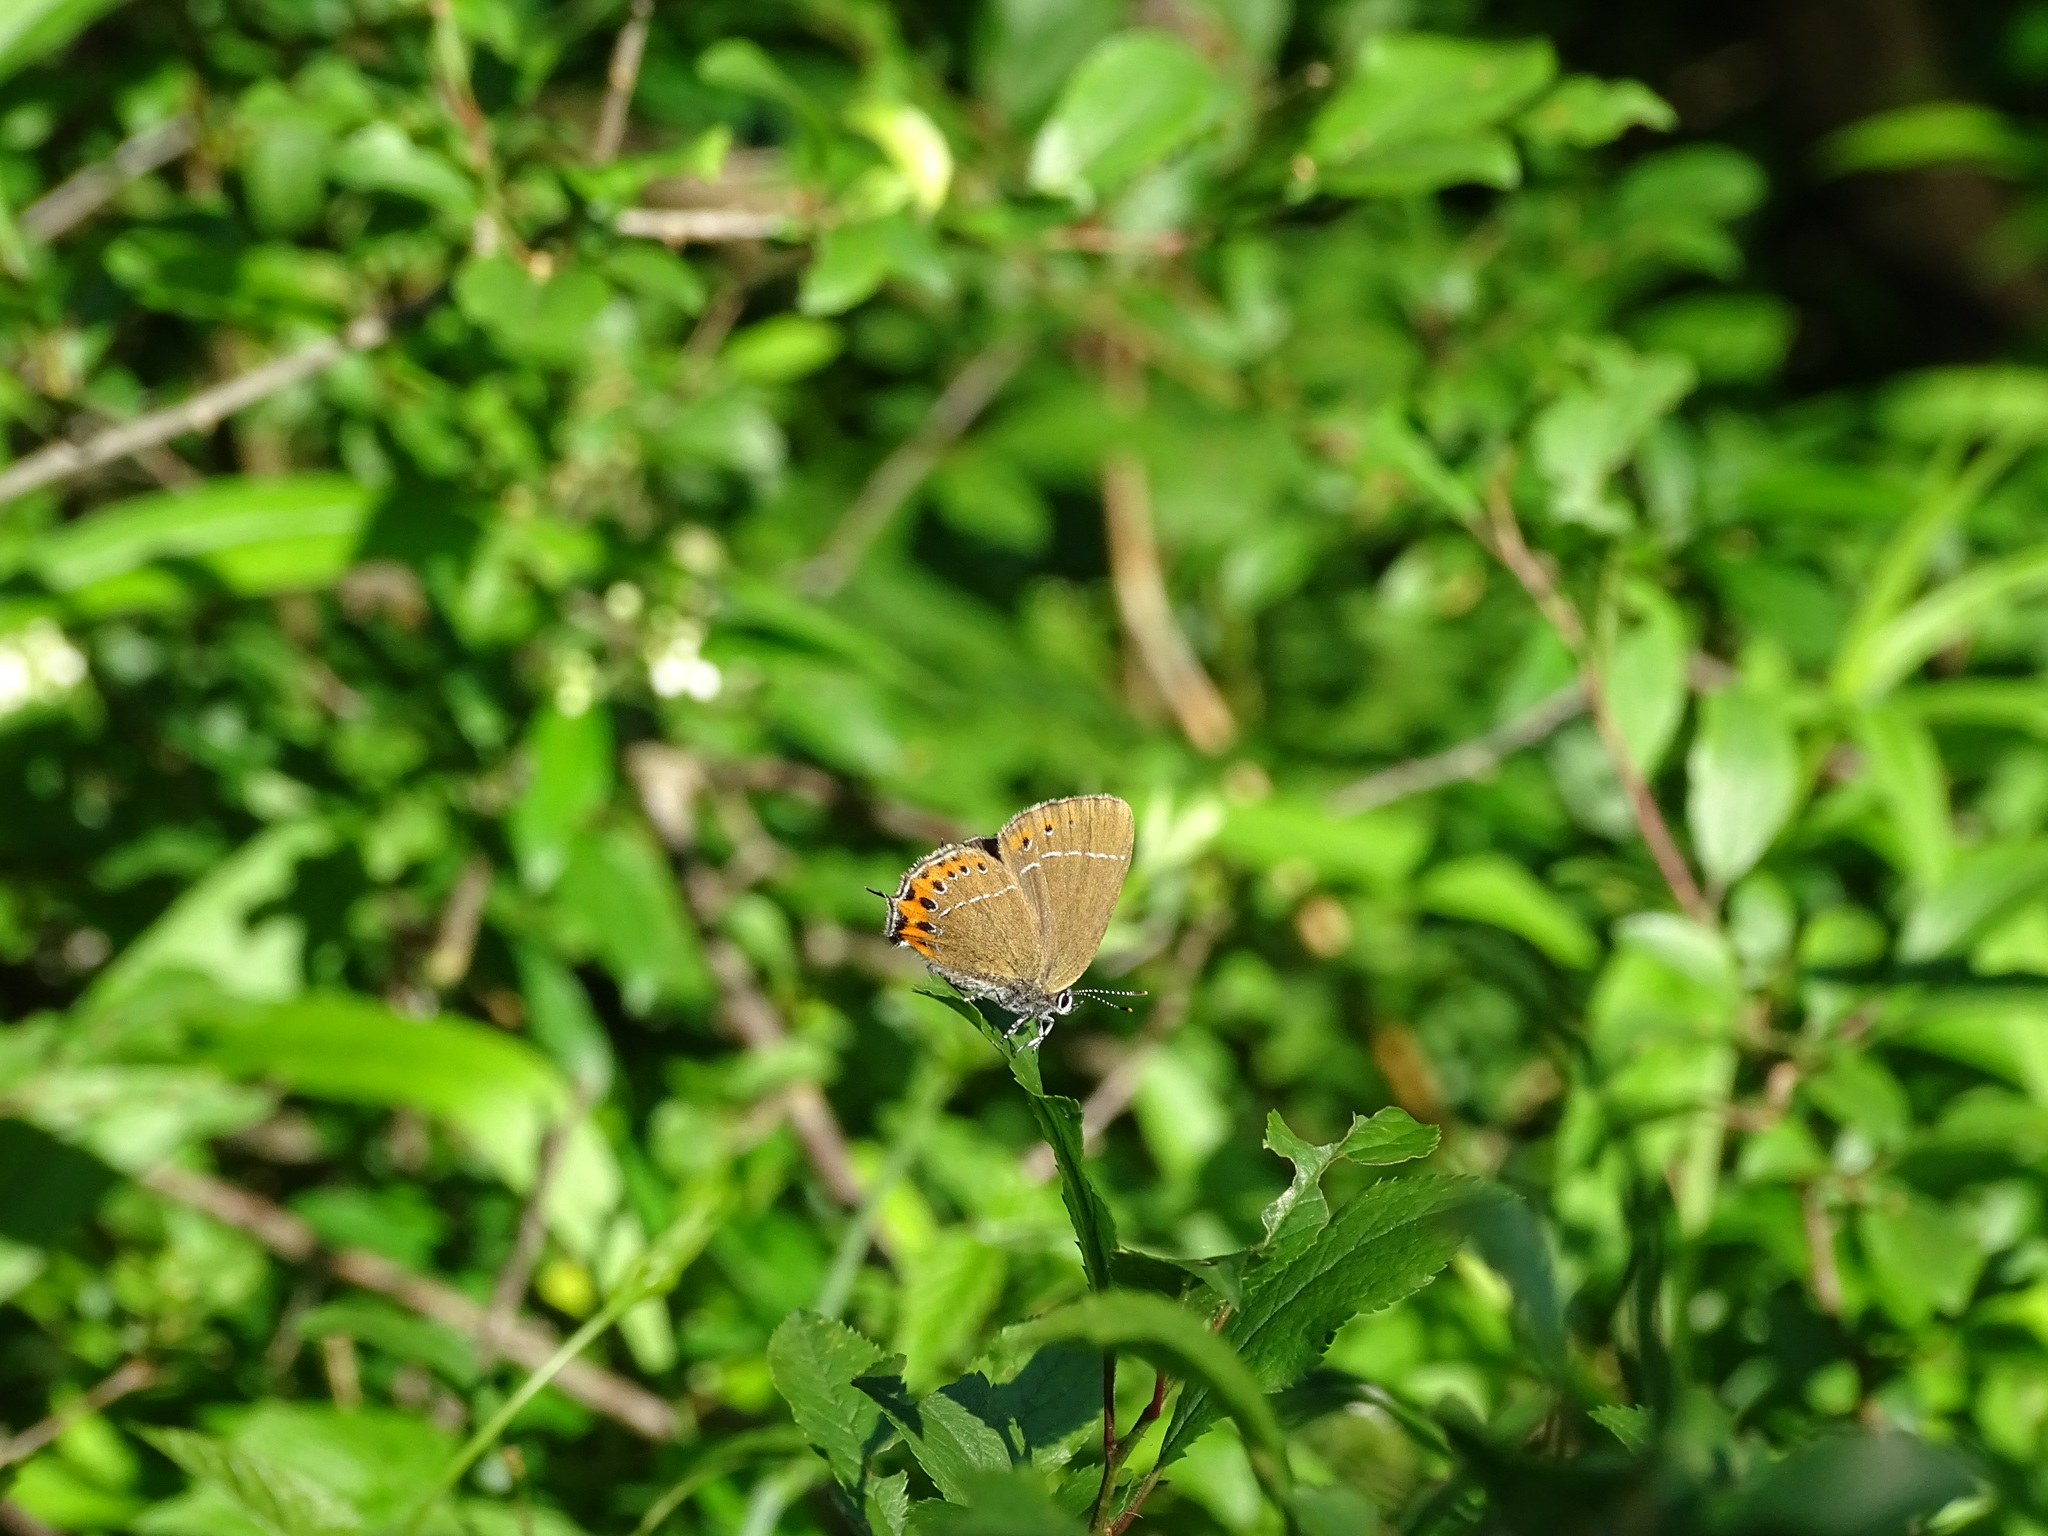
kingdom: Animalia
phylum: Arthropoda
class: Insecta
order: Lepidoptera
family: Lycaenidae
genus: Fixsenia
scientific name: Fixsenia pruni
